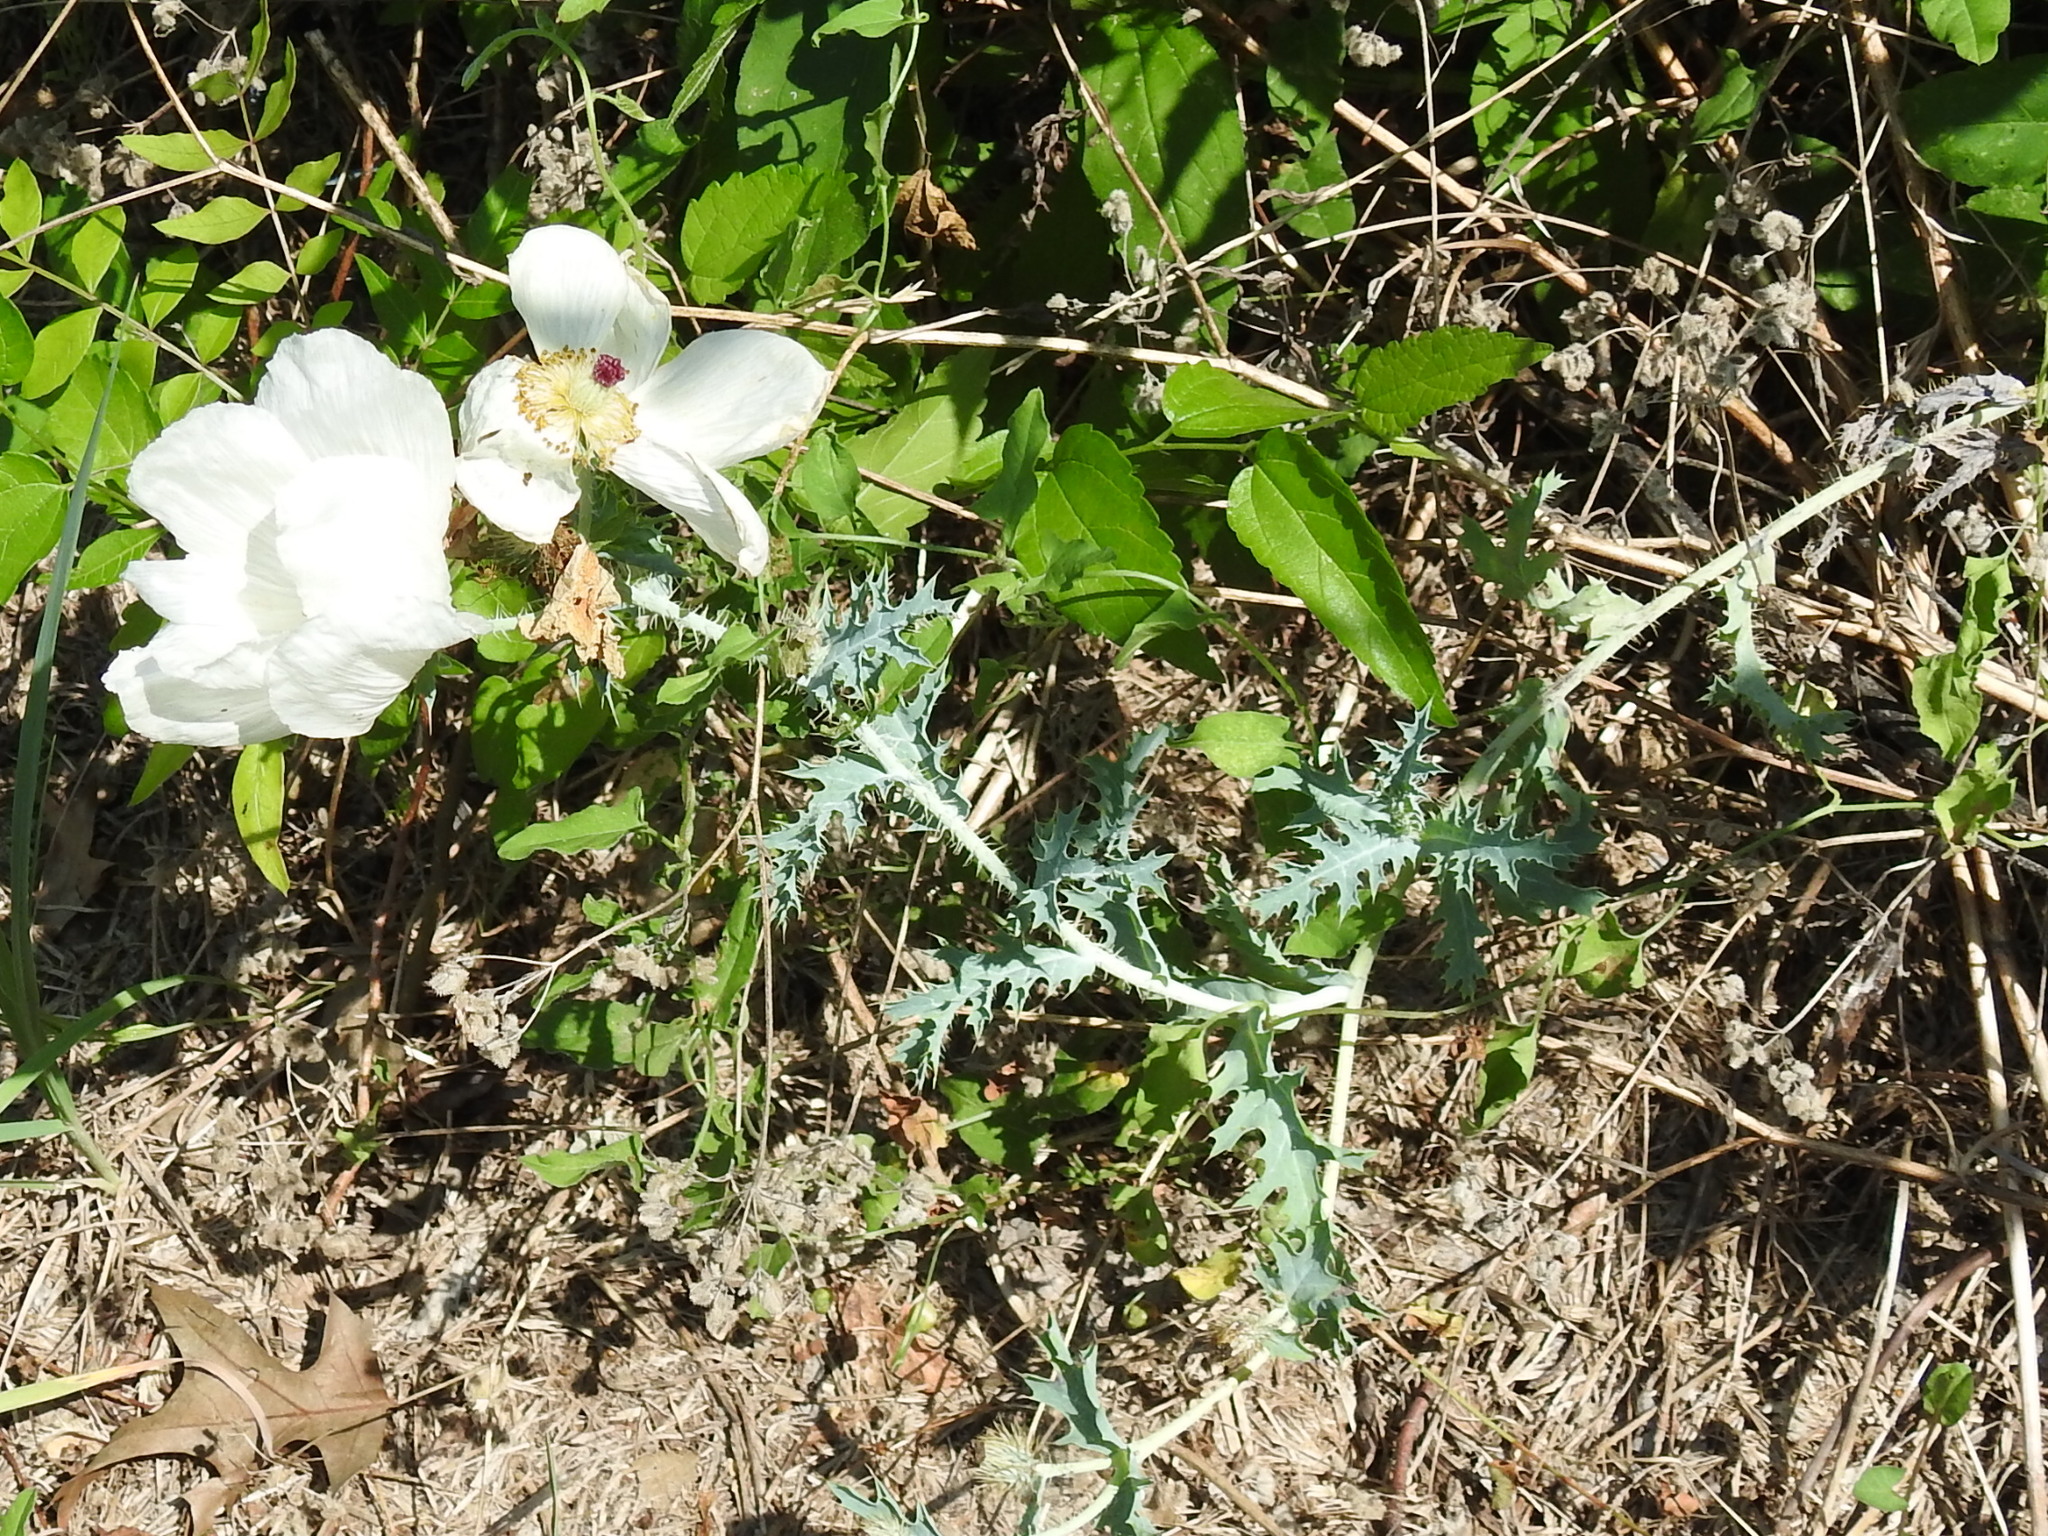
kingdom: Plantae
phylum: Tracheophyta
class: Magnoliopsida
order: Ranunculales
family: Papaveraceae
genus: Argemone
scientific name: Argemone albiflora
